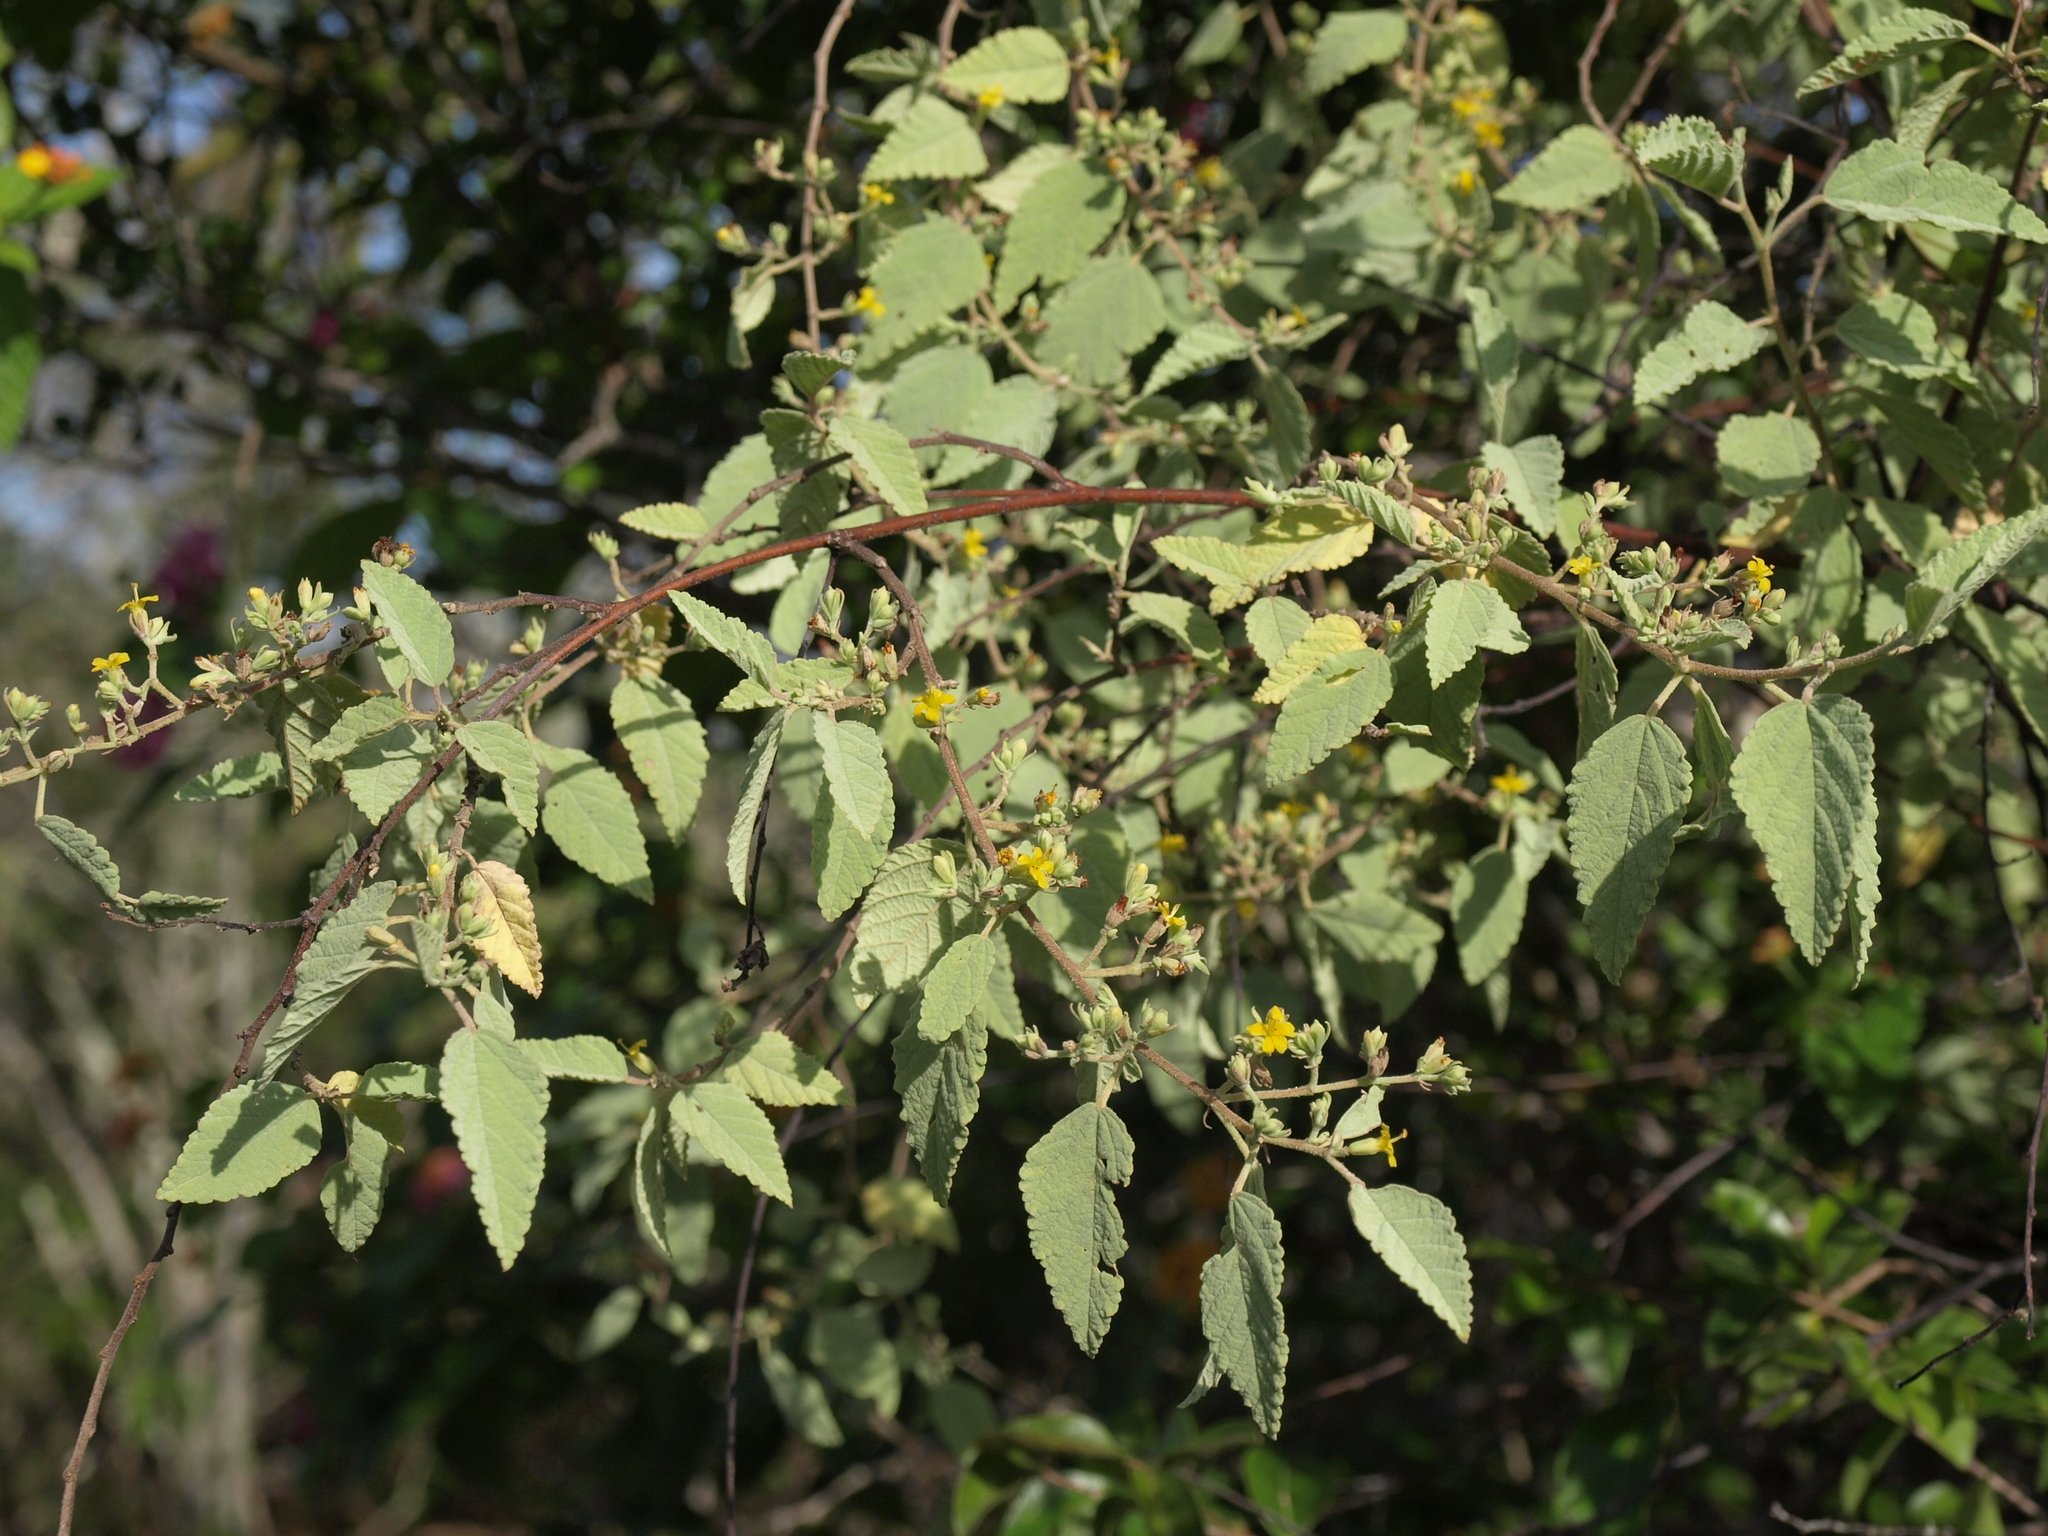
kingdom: Plantae
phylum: Tracheophyta
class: Magnoliopsida
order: Malvales
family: Malvaceae
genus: Waltheria
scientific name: Waltheria ovata
